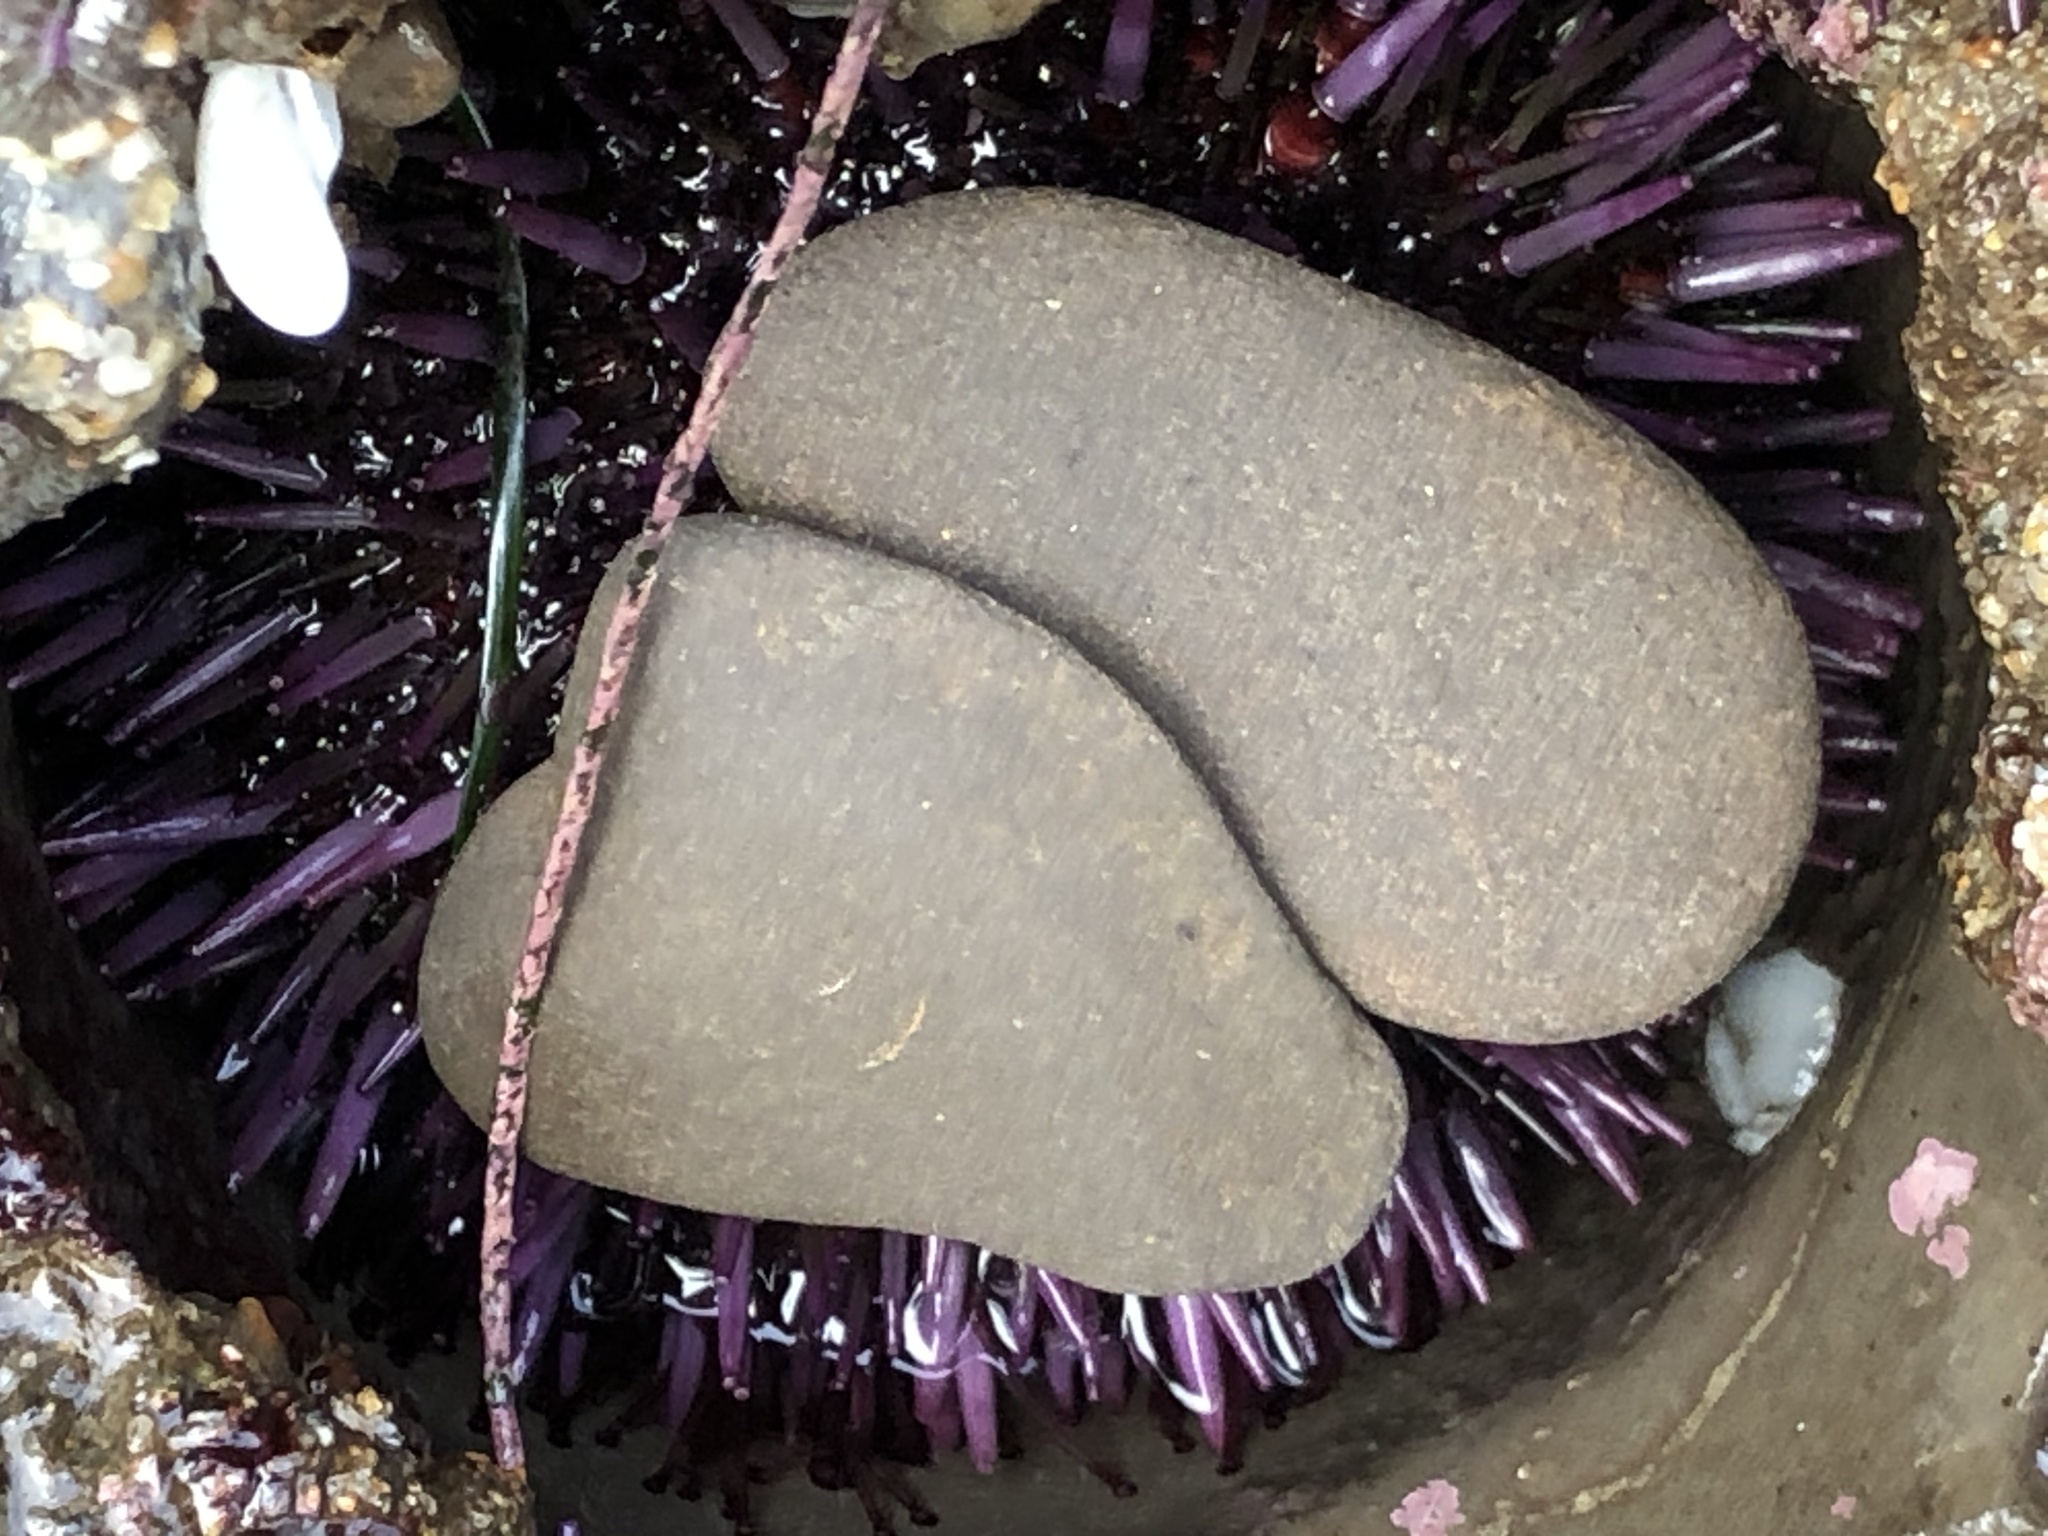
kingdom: Animalia
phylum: Echinodermata
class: Echinoidea
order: Camarodonta
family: Strongylocentrotidae
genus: Strongylocentrotus
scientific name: Strongylocentrotus purpuratus
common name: Purple sea urchin
